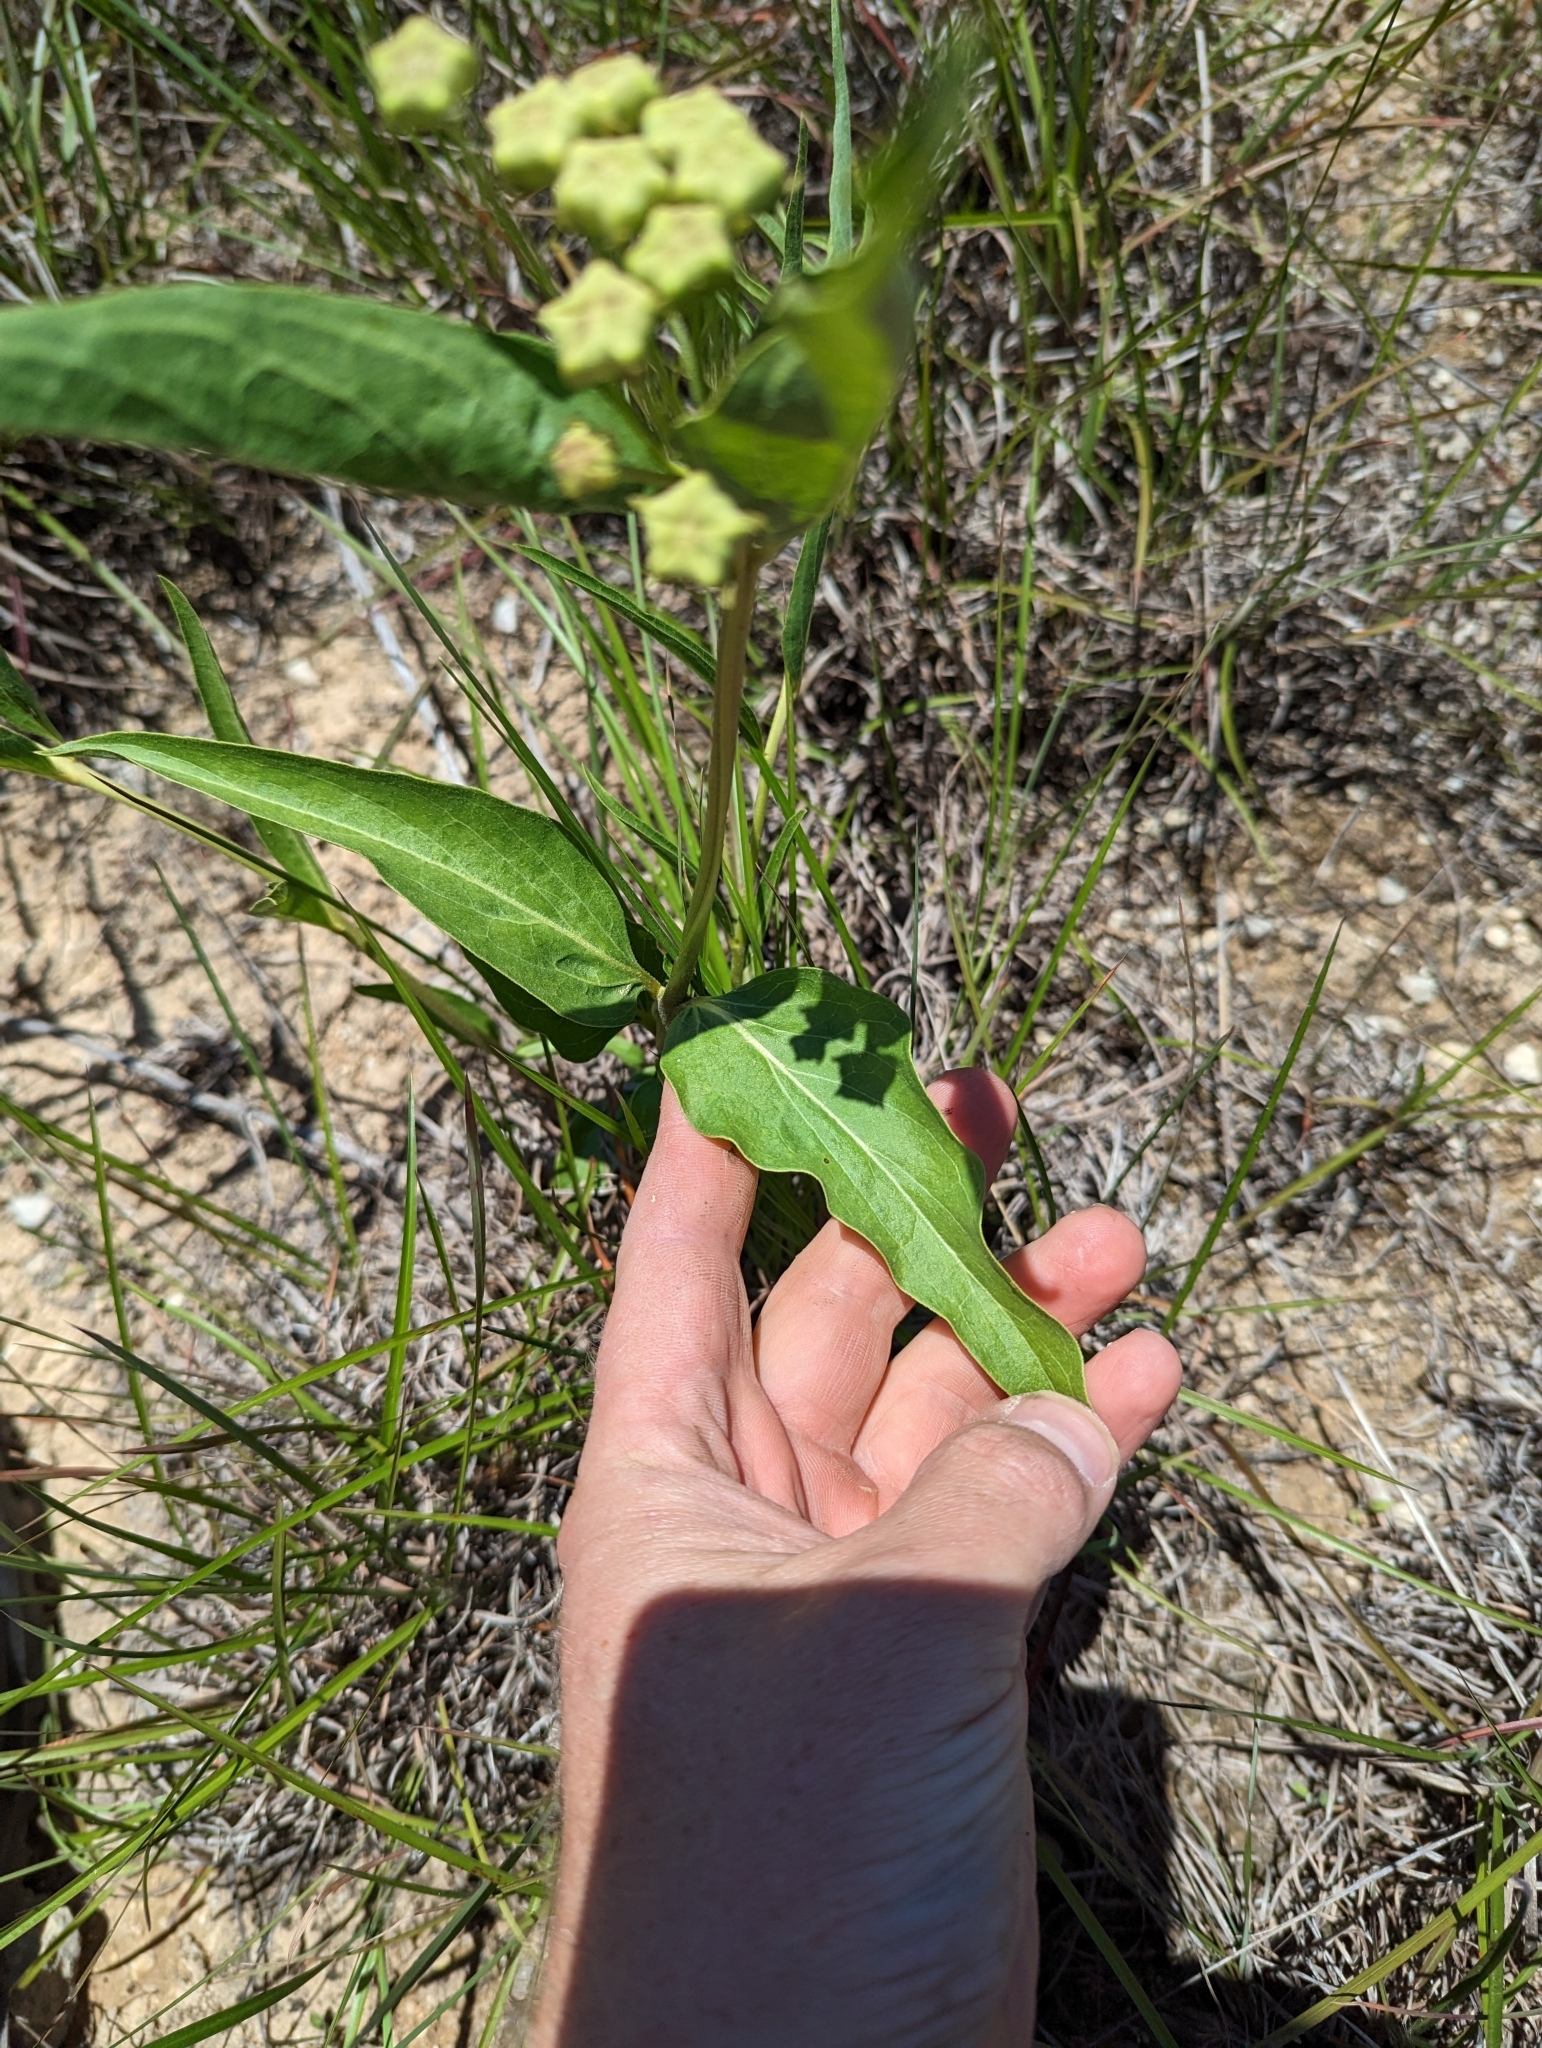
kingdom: Plantae
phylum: Tracheophyta
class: Magnoliopsida
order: Gentianales
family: Apocynaceae
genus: Asclepias
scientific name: Asclepias asperula
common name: Antelope horns
